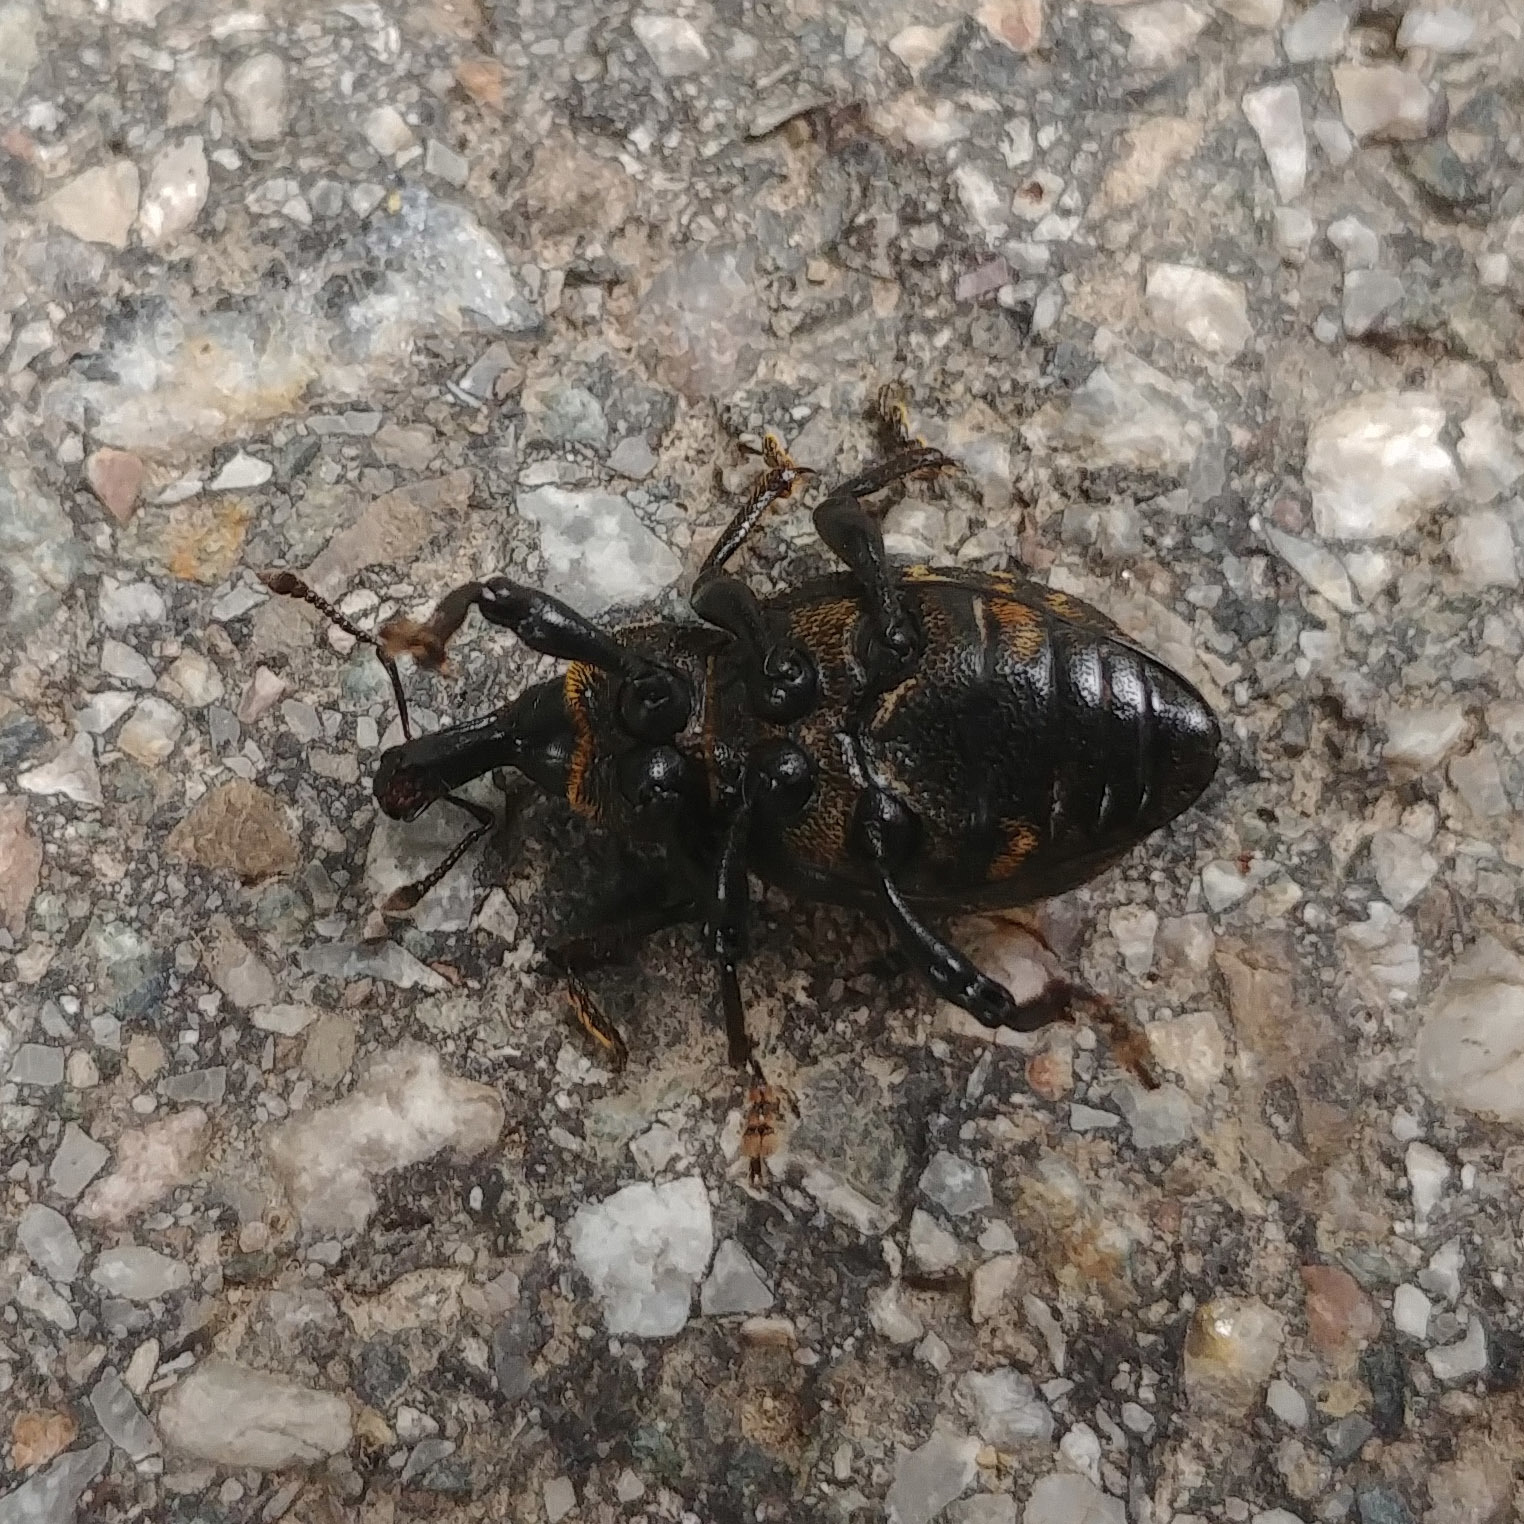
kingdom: Animalia
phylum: Arthropoda
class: Insecta
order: Coleoptera
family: Curculionidae
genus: Liparus
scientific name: Liparus germanus
